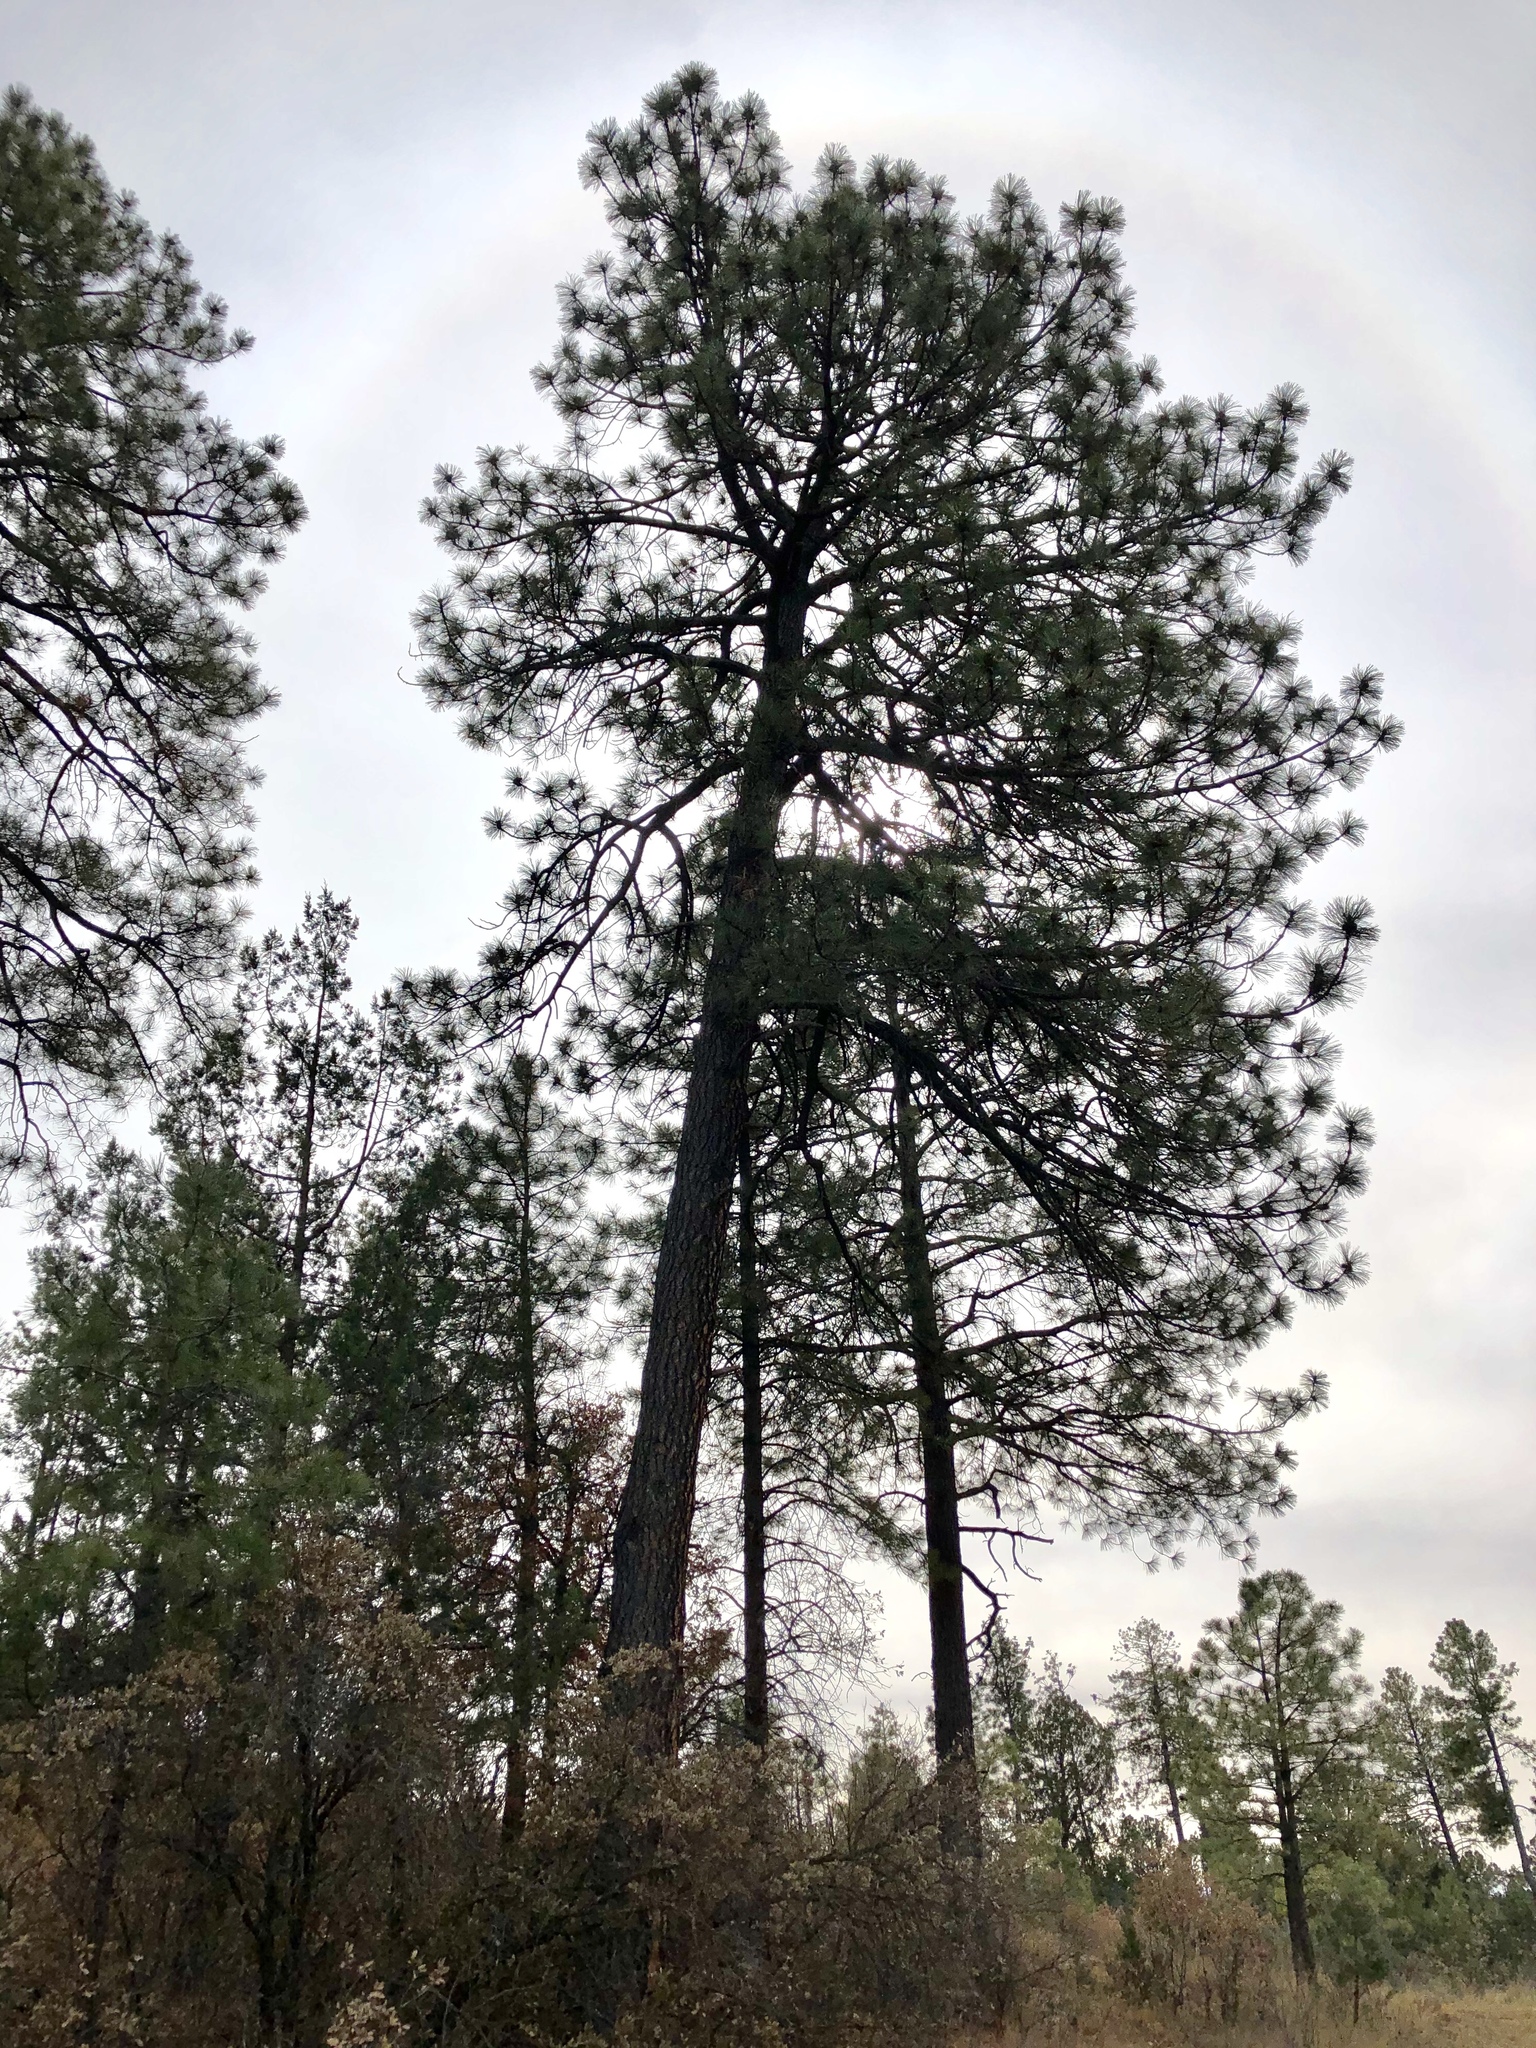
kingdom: Plantae
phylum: Tracheophyta
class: Pinopsida
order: Pinales
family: Pinaceae
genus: Pinus
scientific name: Pinus ponderosa
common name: Western yellow-pine
